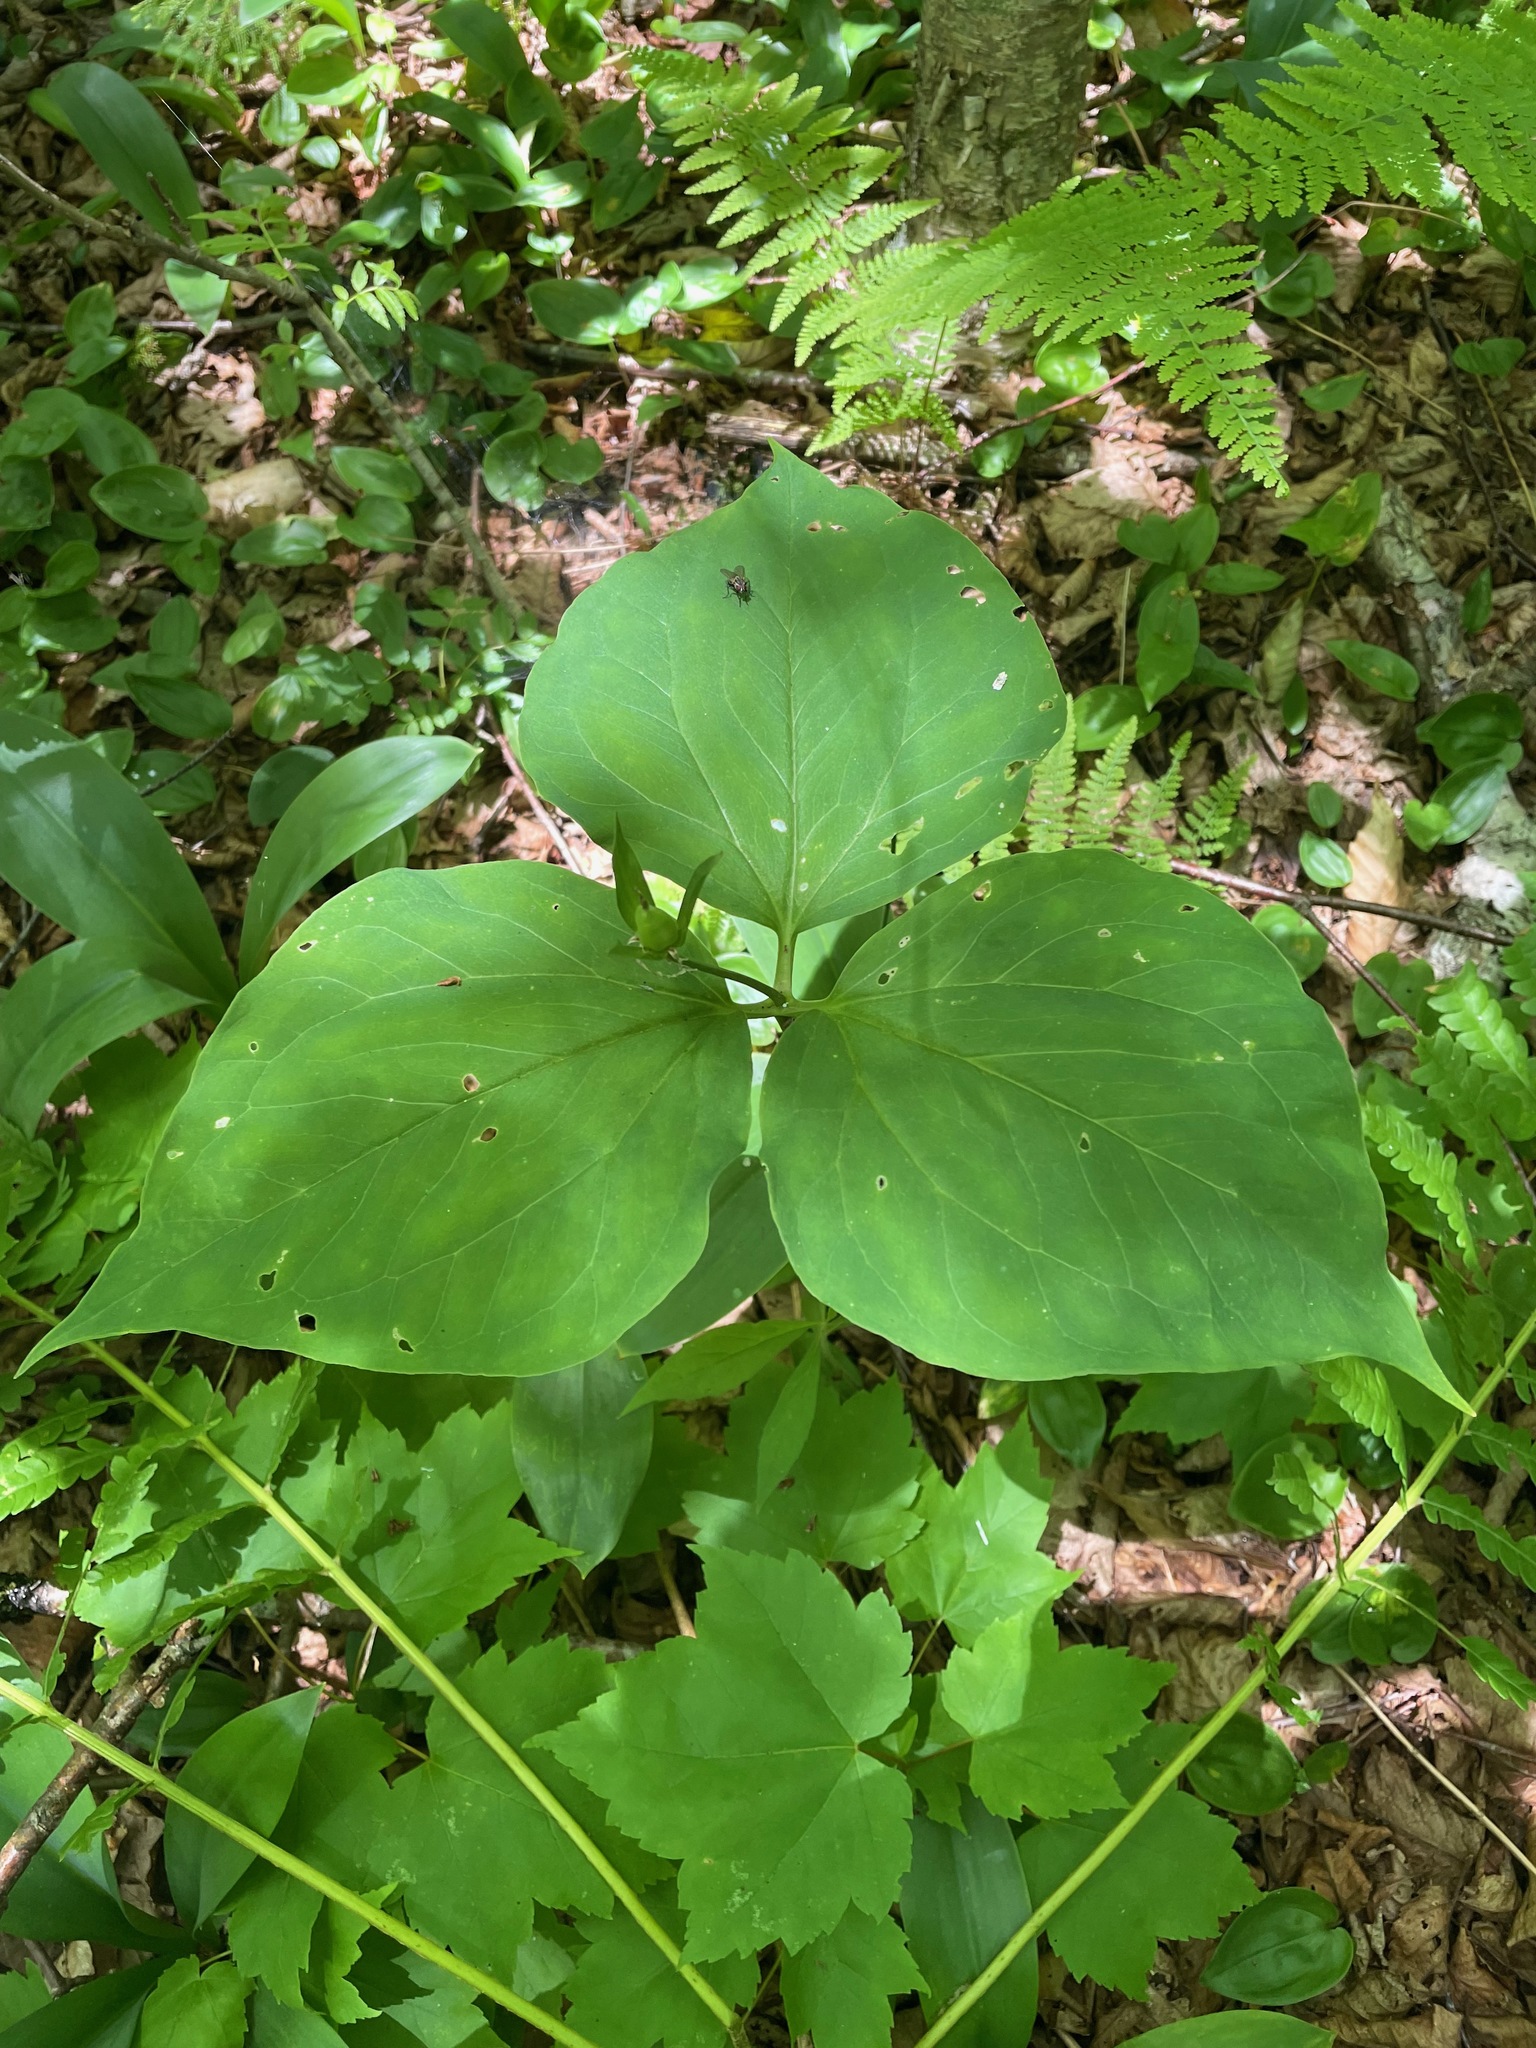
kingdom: Plantae
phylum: Tracheophyta
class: Liliopsida
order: Liliales
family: Melanthiaceae
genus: Trillium
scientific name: Trillium undulatum
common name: Paint trillium
